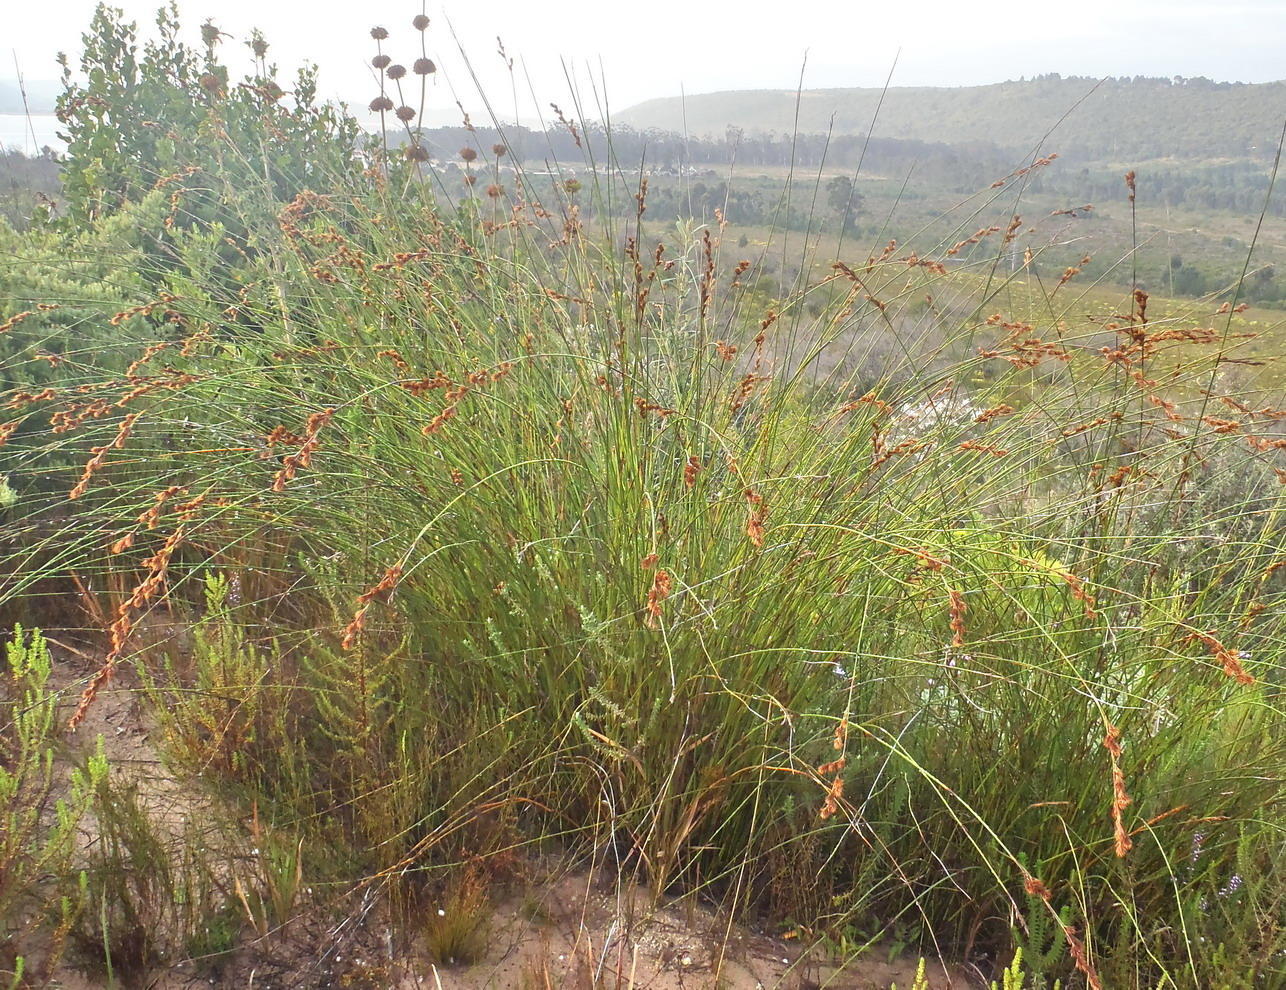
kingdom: Plantae
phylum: Tracheophyta
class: Liliopsida
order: Poales
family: Restionaceae
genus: Thamnochortus
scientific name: Thamnochortus insignis
